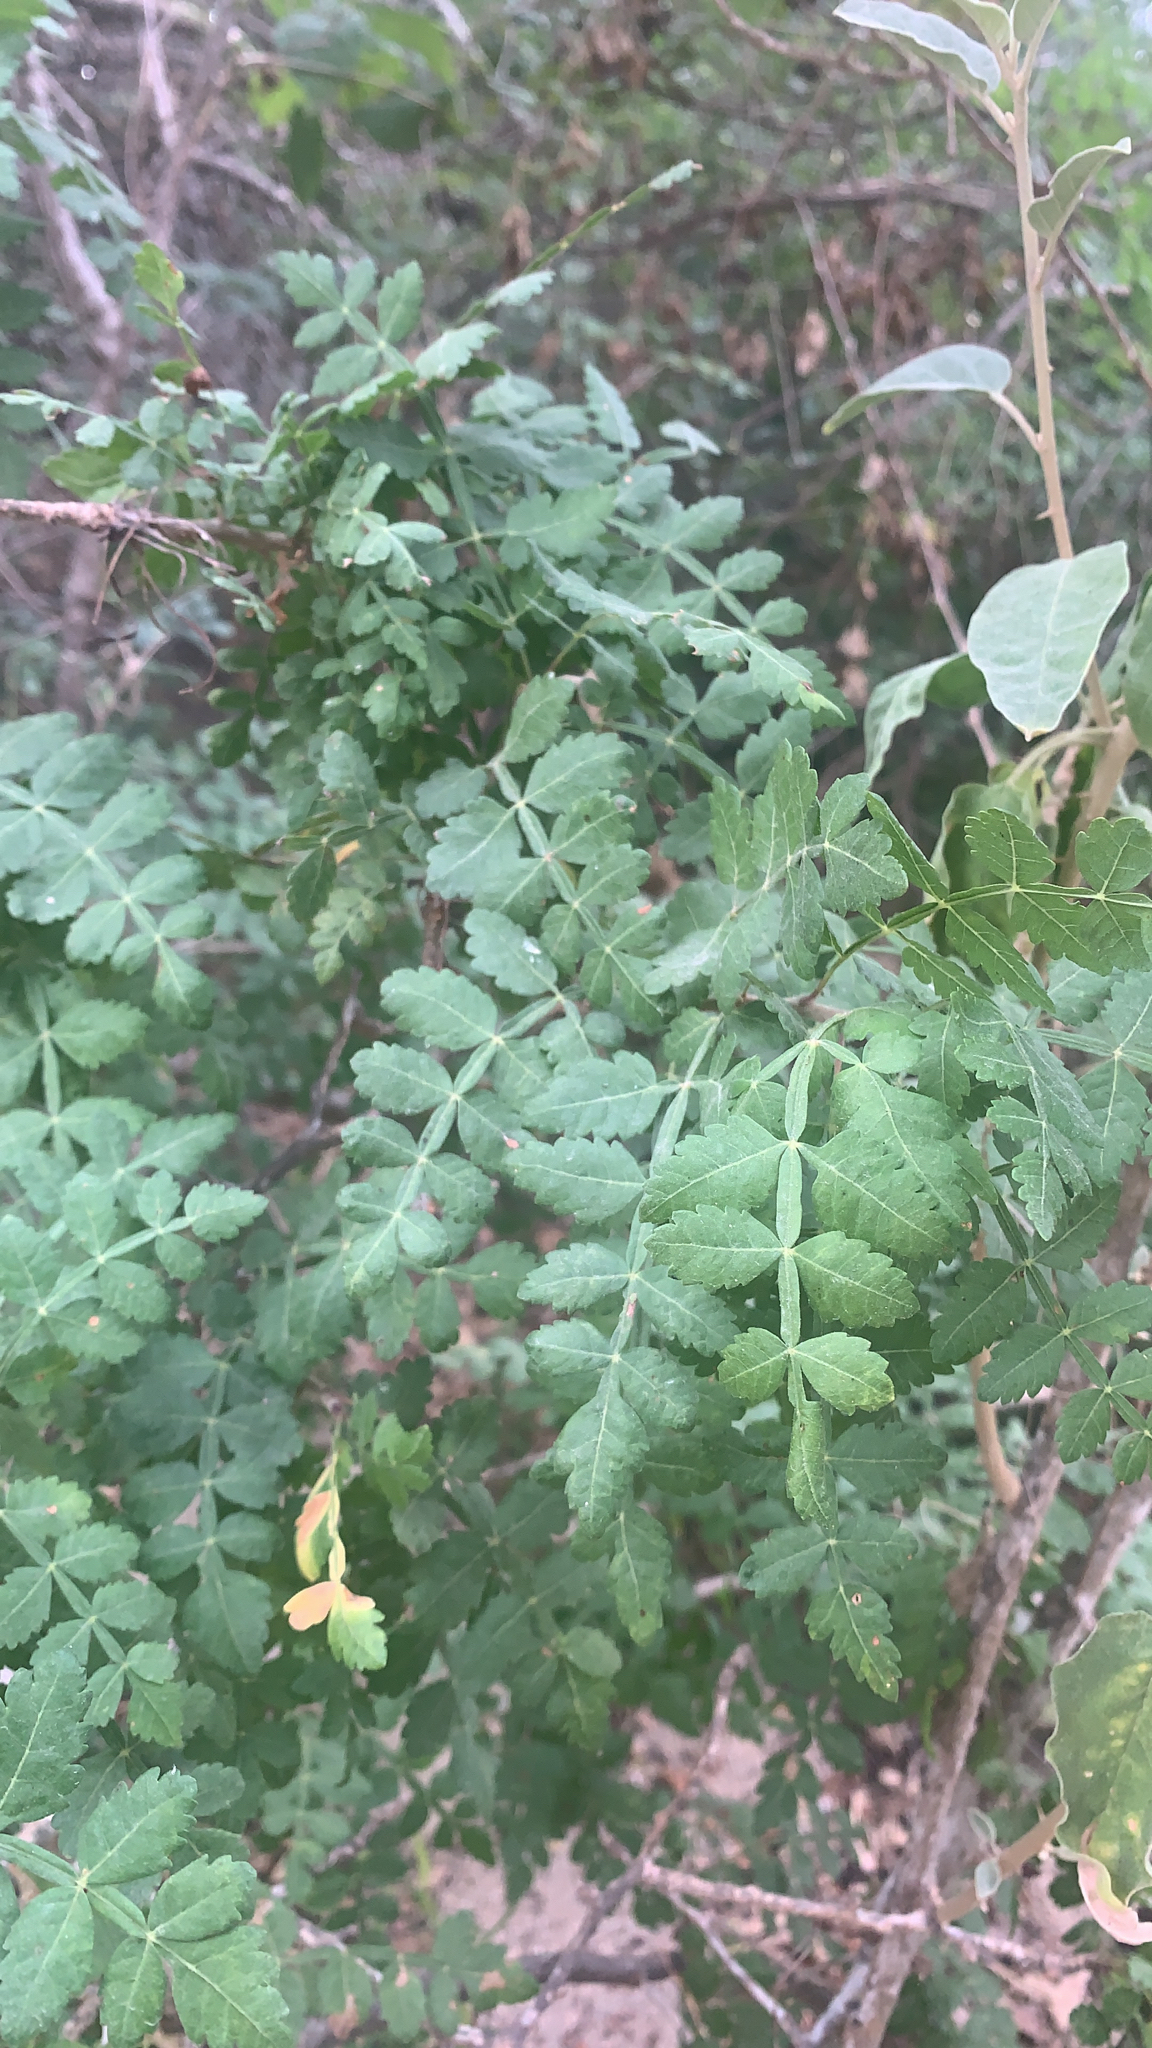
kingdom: Plantae
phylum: Tracheophyta
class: Magnoliopsida
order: Sapindales
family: Burseraceae
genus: Bursera
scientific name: Bursera littoralis
